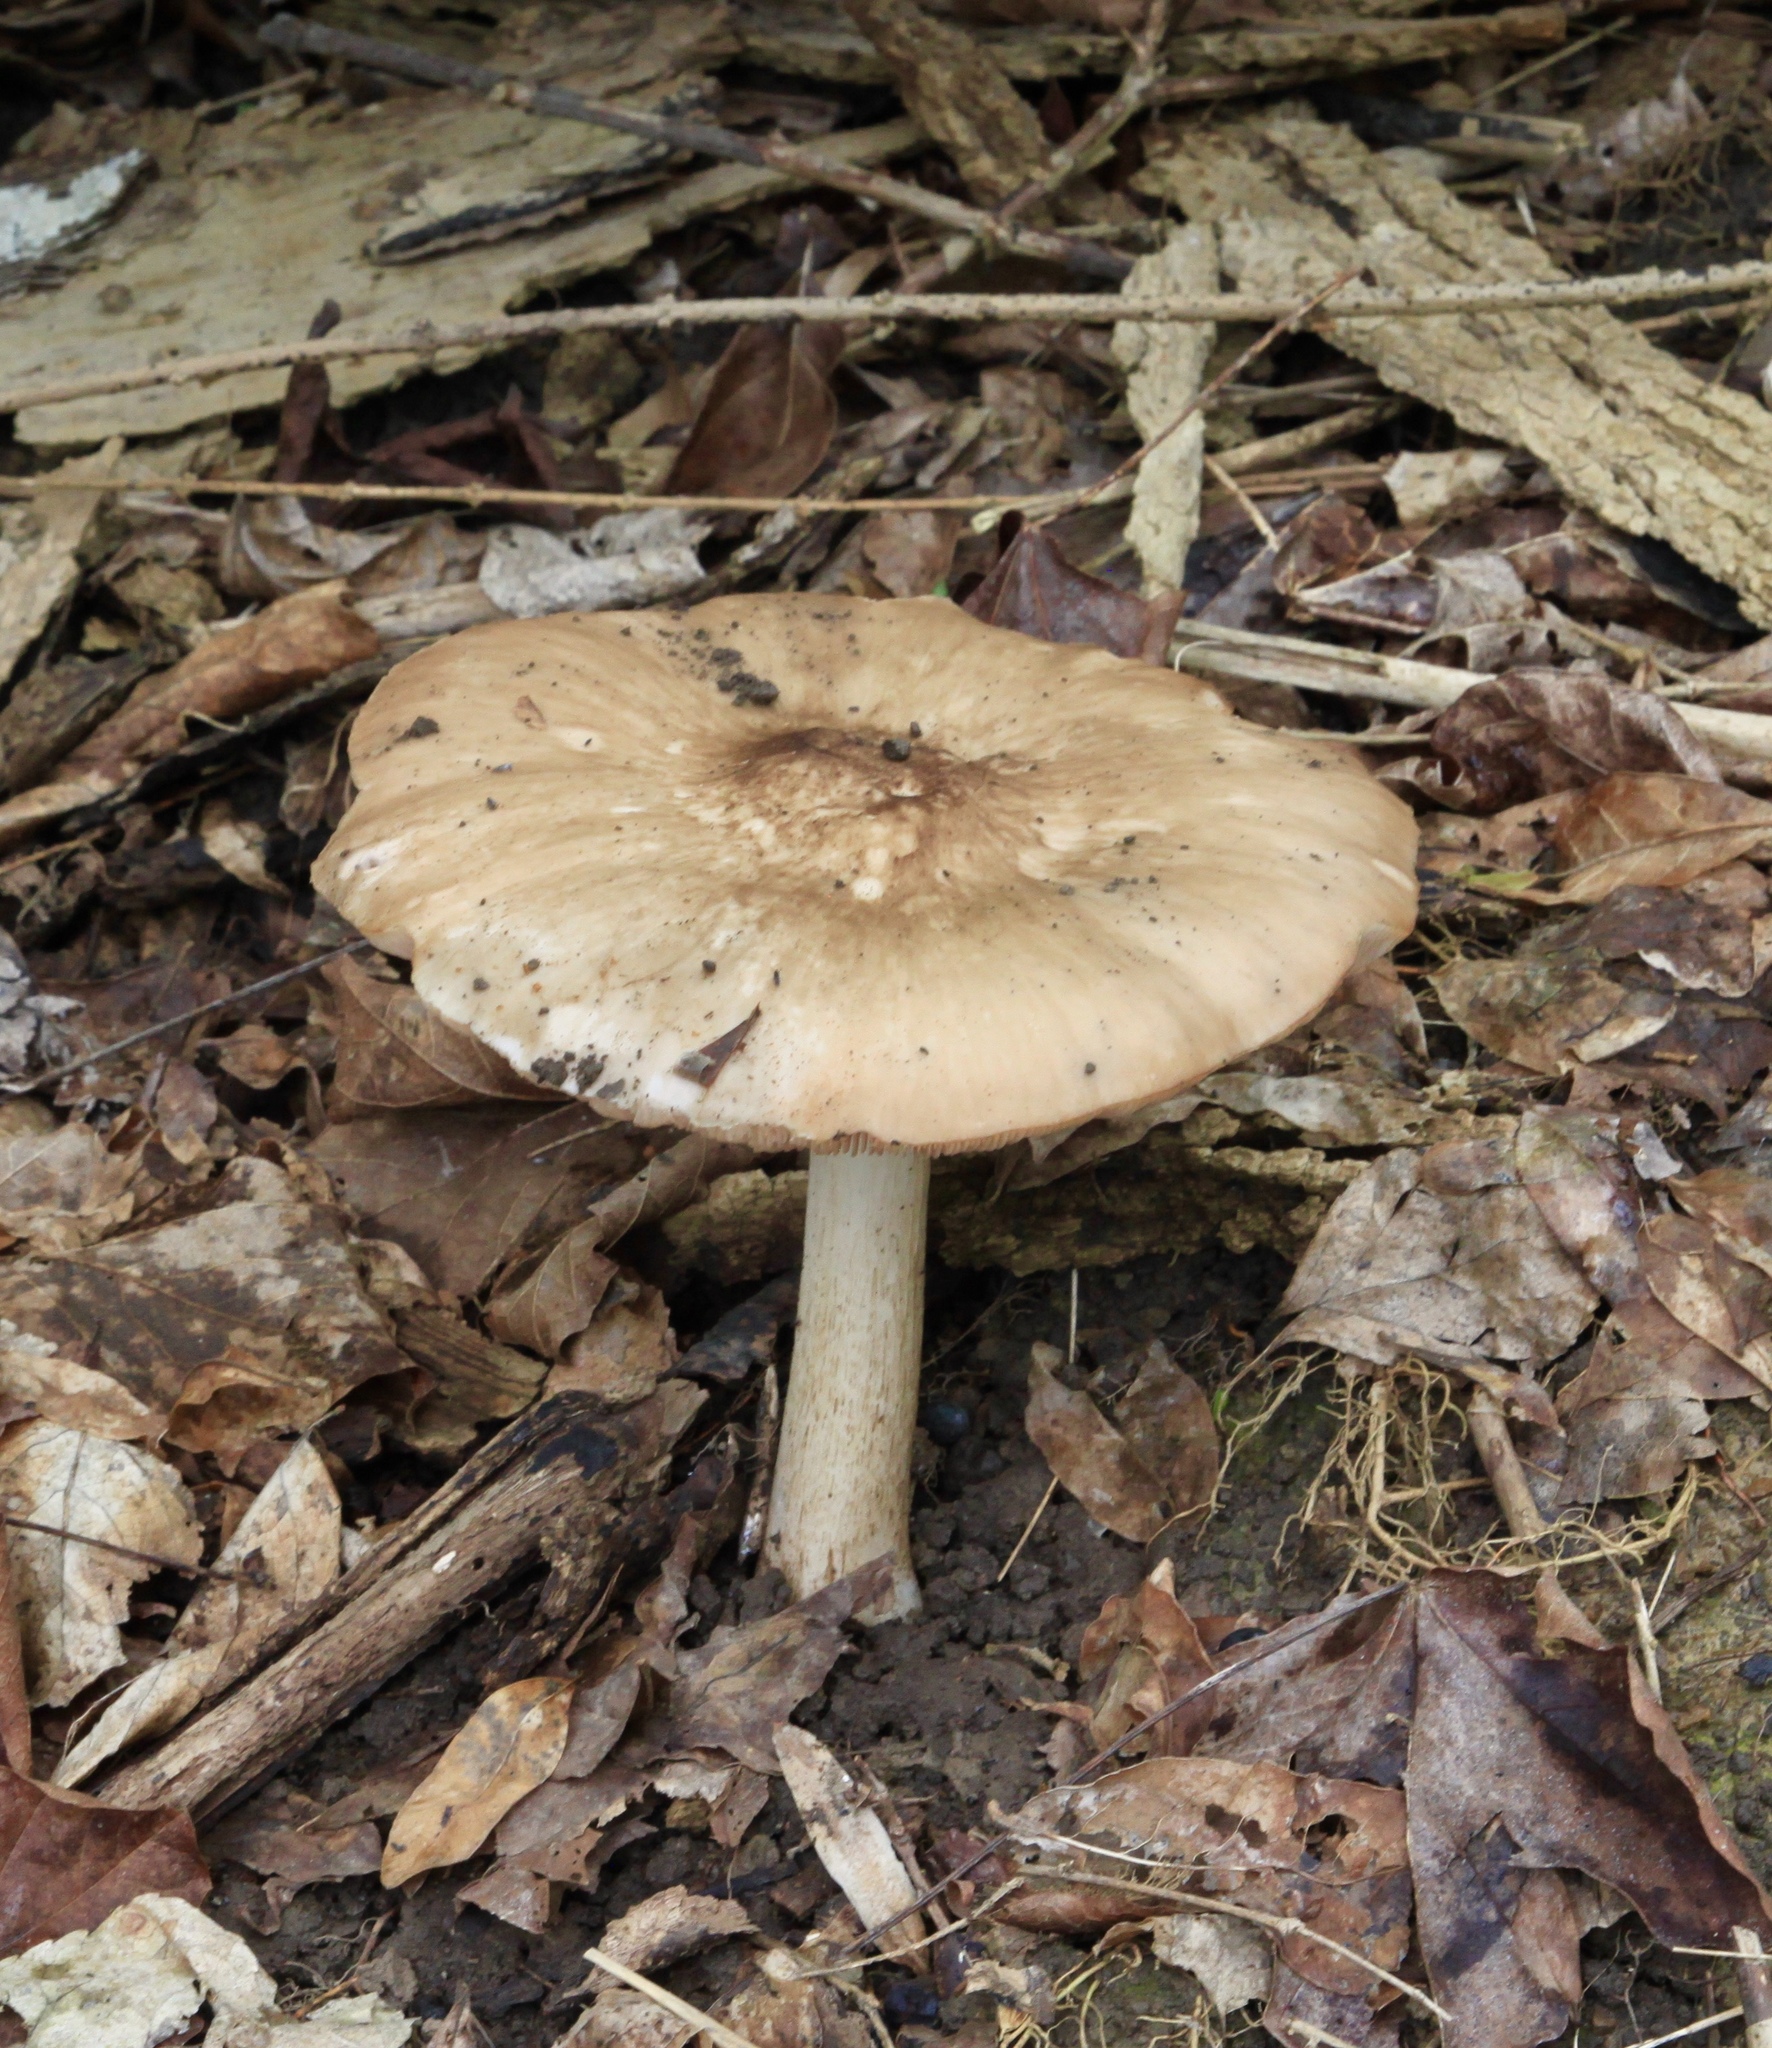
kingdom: Fungi
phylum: Basidiomycota
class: Agaricomycetes
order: Agaricales
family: Pluteaceae
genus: Pluteus
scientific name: Pluteus cervinus
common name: Deer shield
